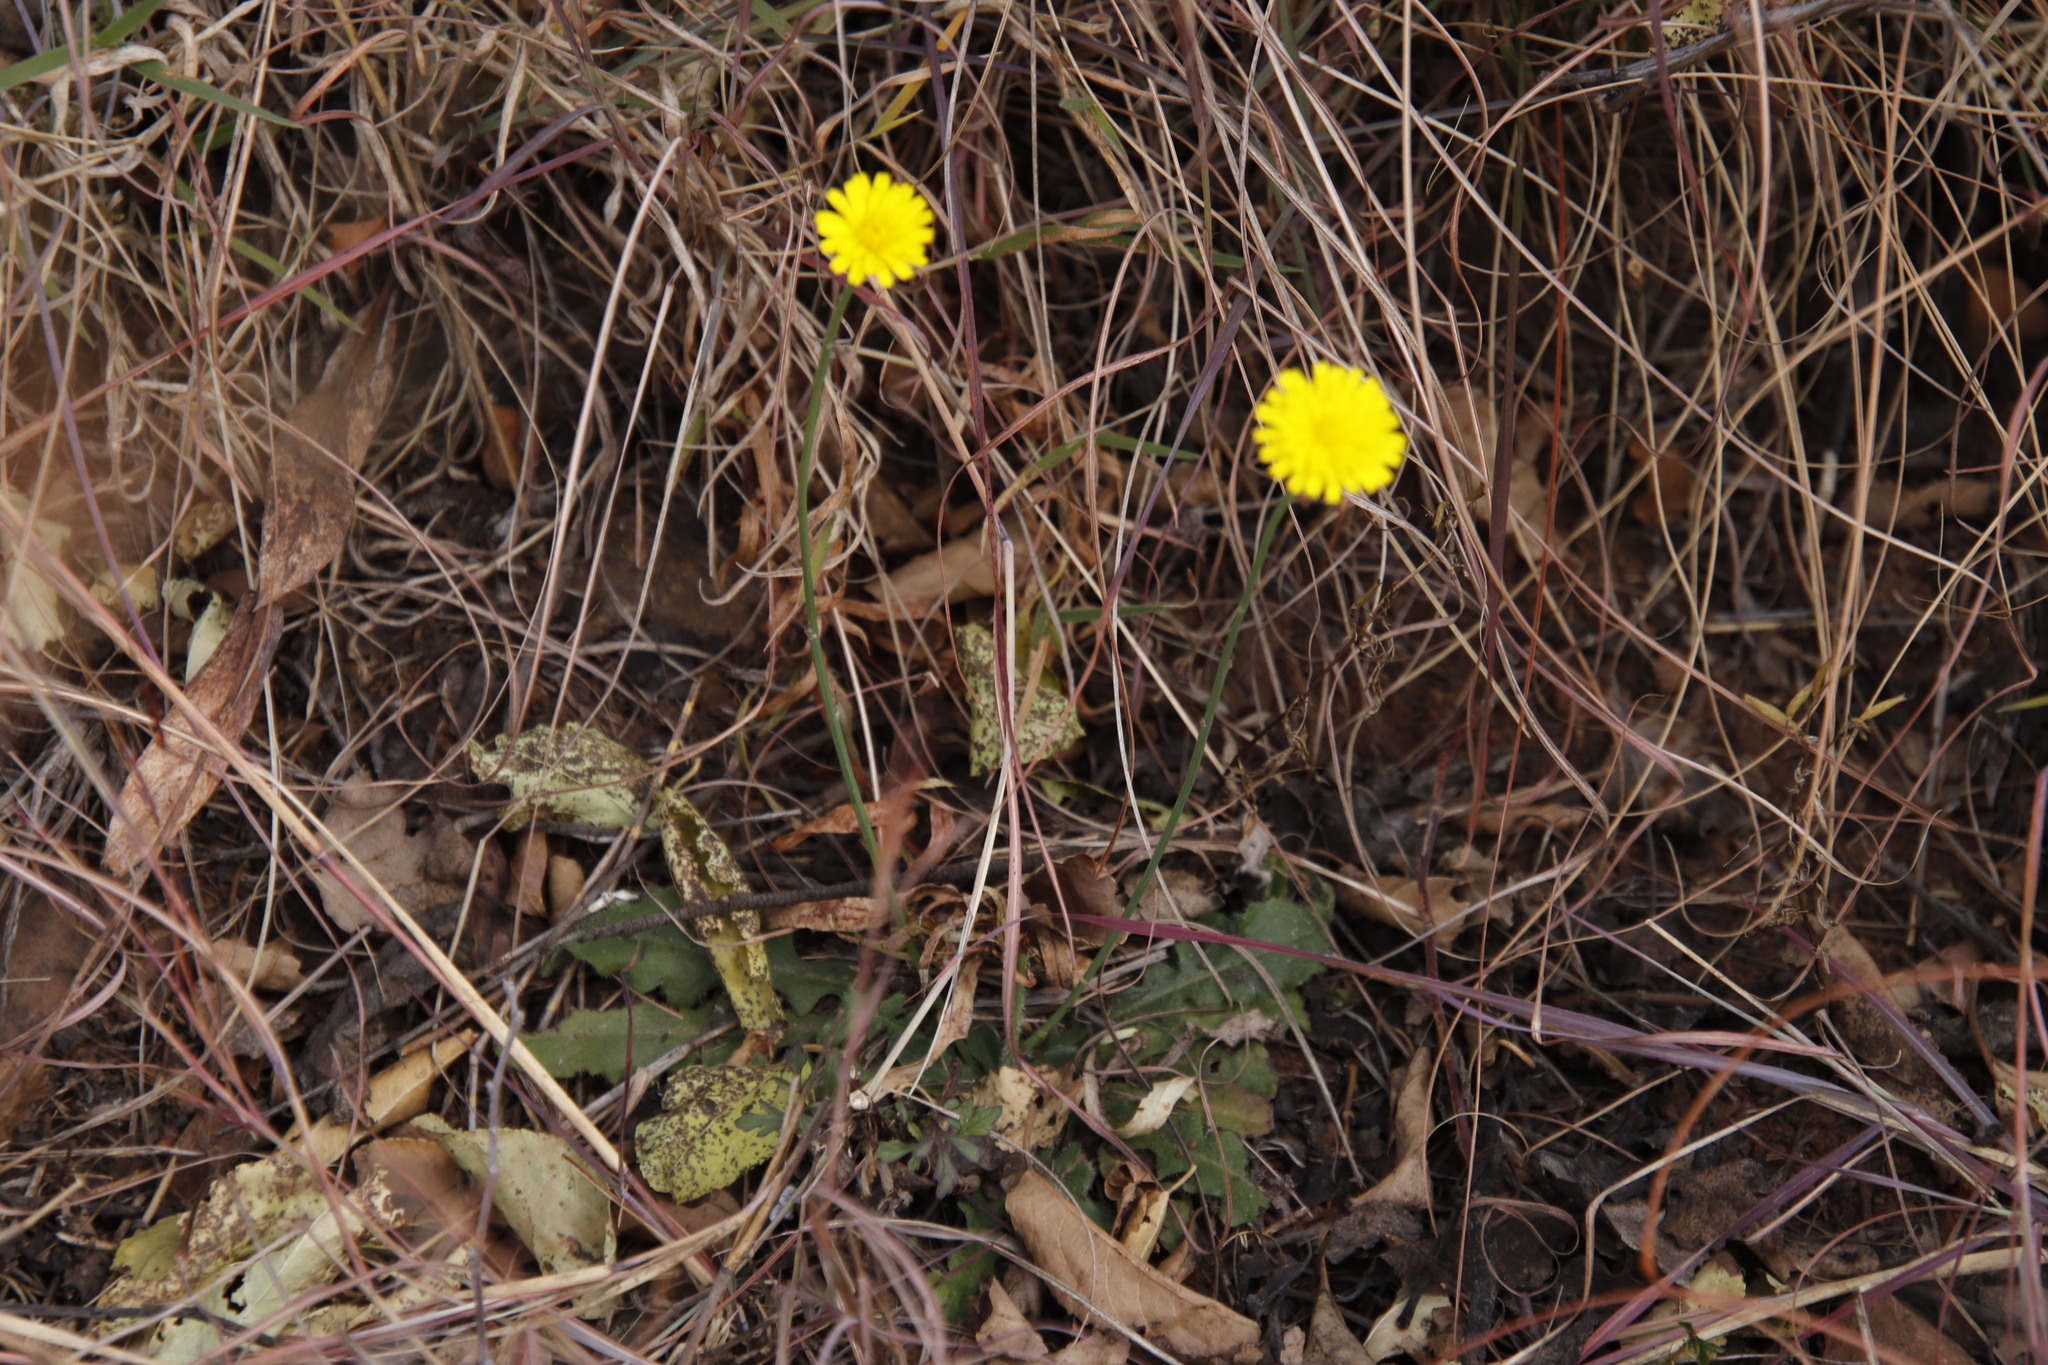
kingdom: Plantae
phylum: Tracheophyta
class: Magnoliopsida
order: Asterales
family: Asteraceae
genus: Hypochaeris
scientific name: Hypochaeris radicata
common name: Flatweed
